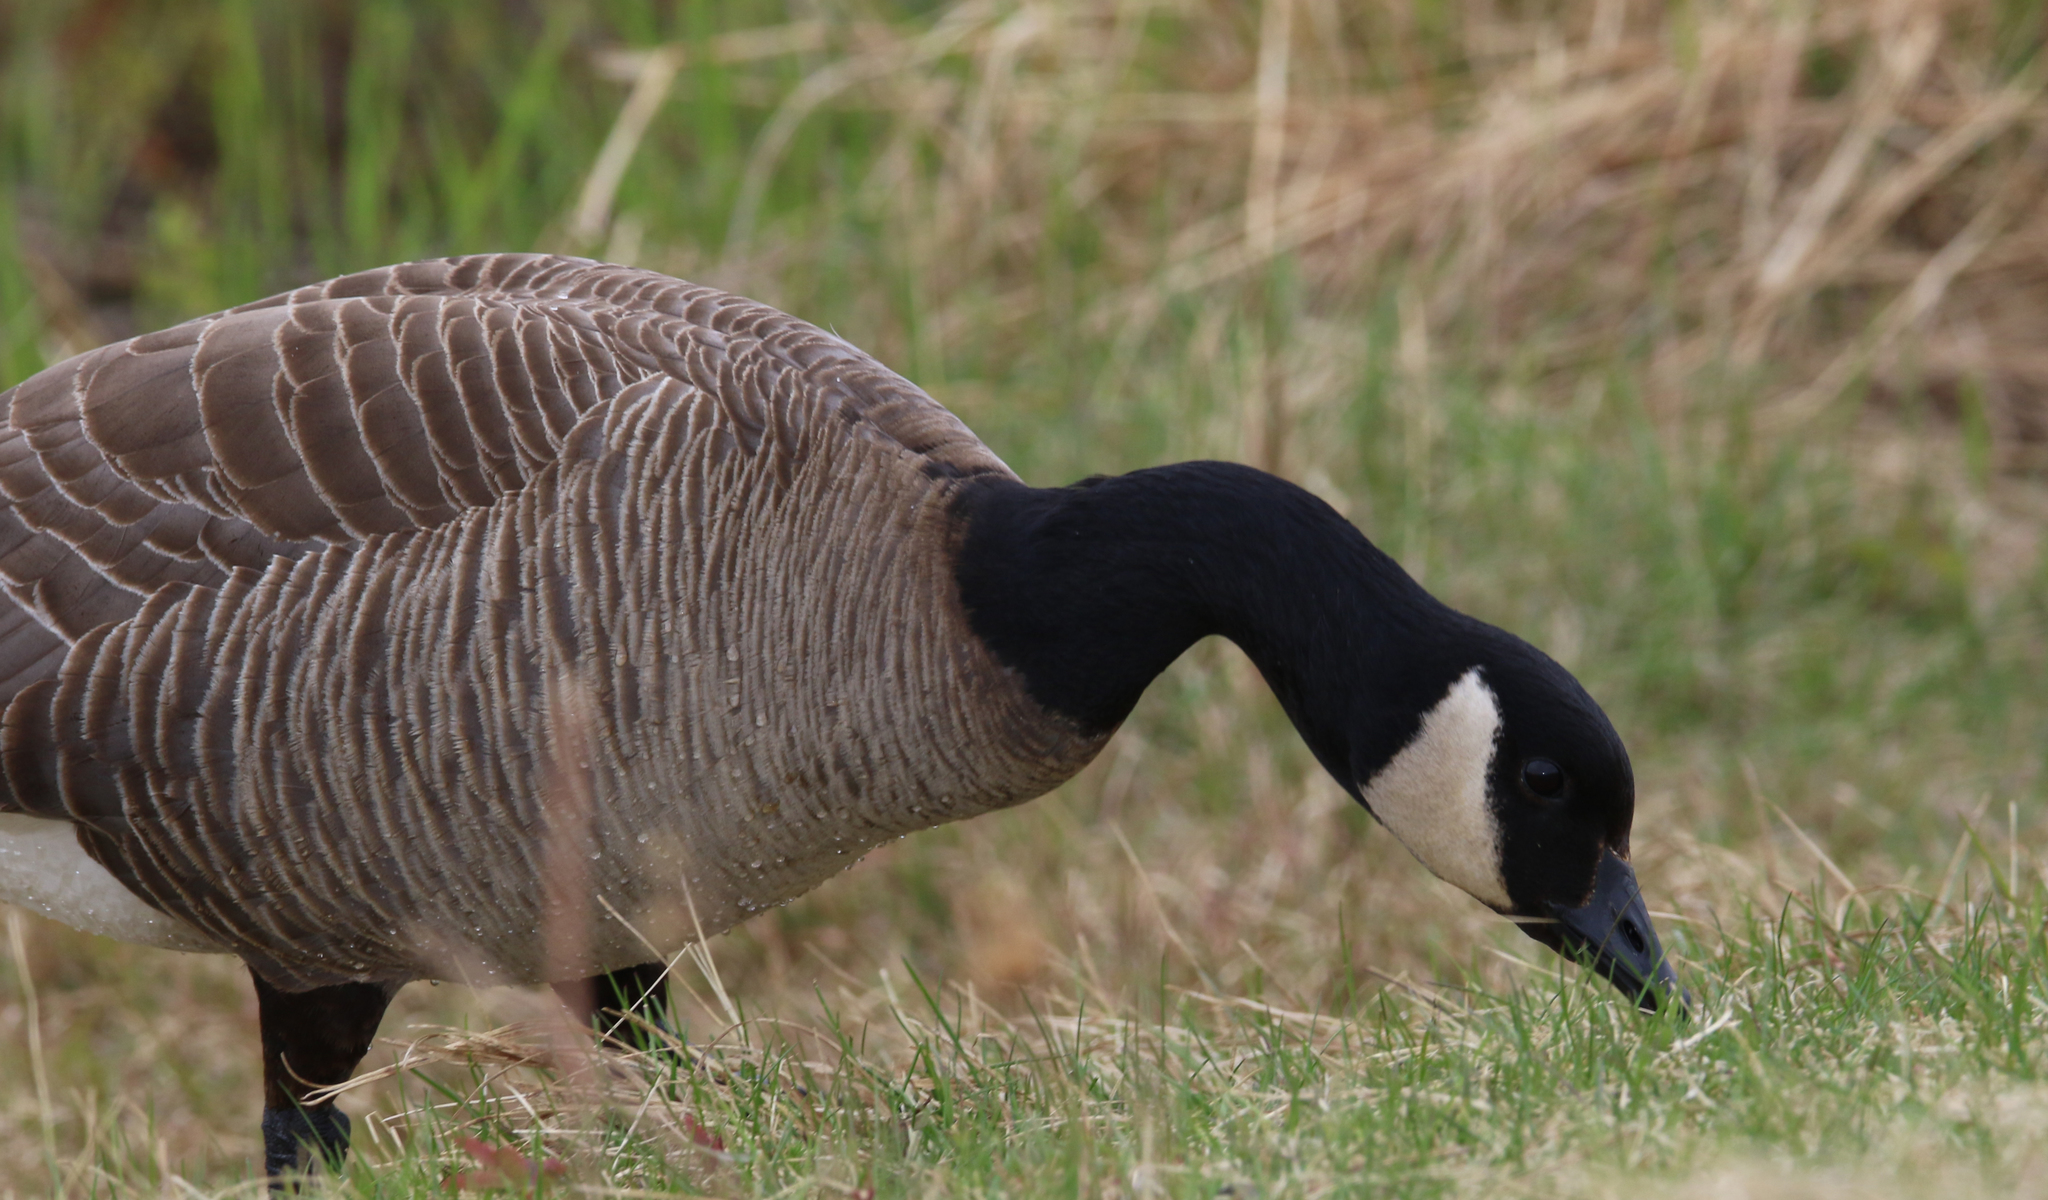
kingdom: Animalia
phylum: Chordata
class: Aves
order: Anseriformes
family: Anatidae
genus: Branta
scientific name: Branta canadensis
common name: Canada goose
